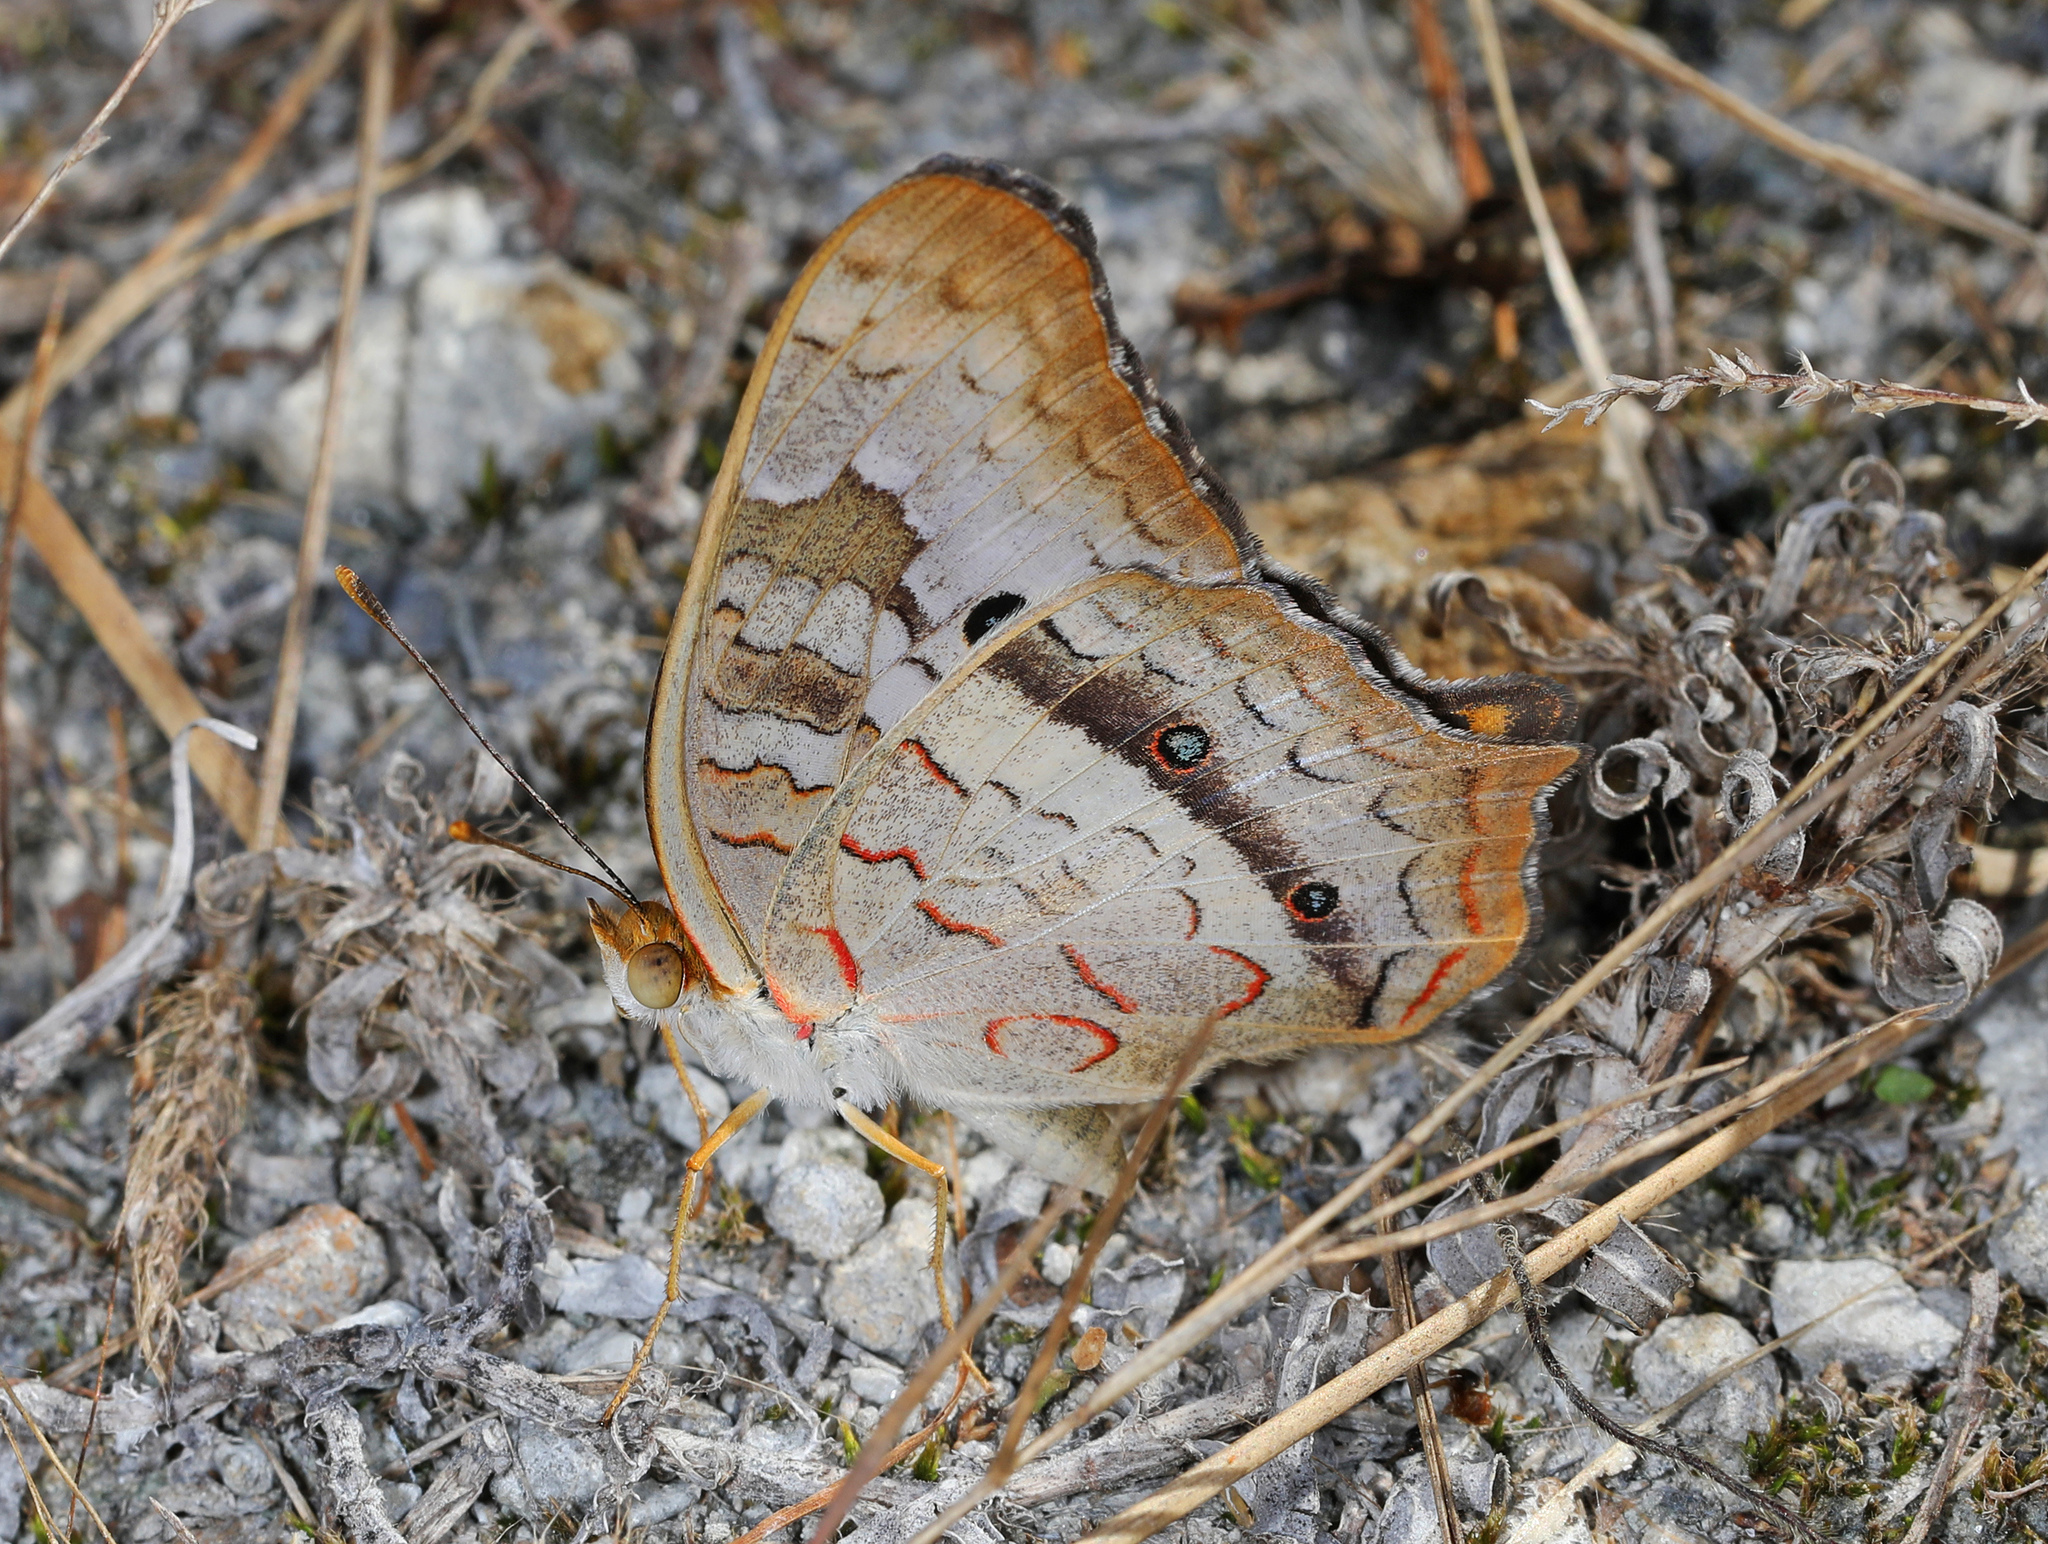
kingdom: Animalia
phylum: Arthropoda
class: Insecta
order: Lepidoptera
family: Nymphalidae
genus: Anartia
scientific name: Anartia jatrophae
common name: White peacock
